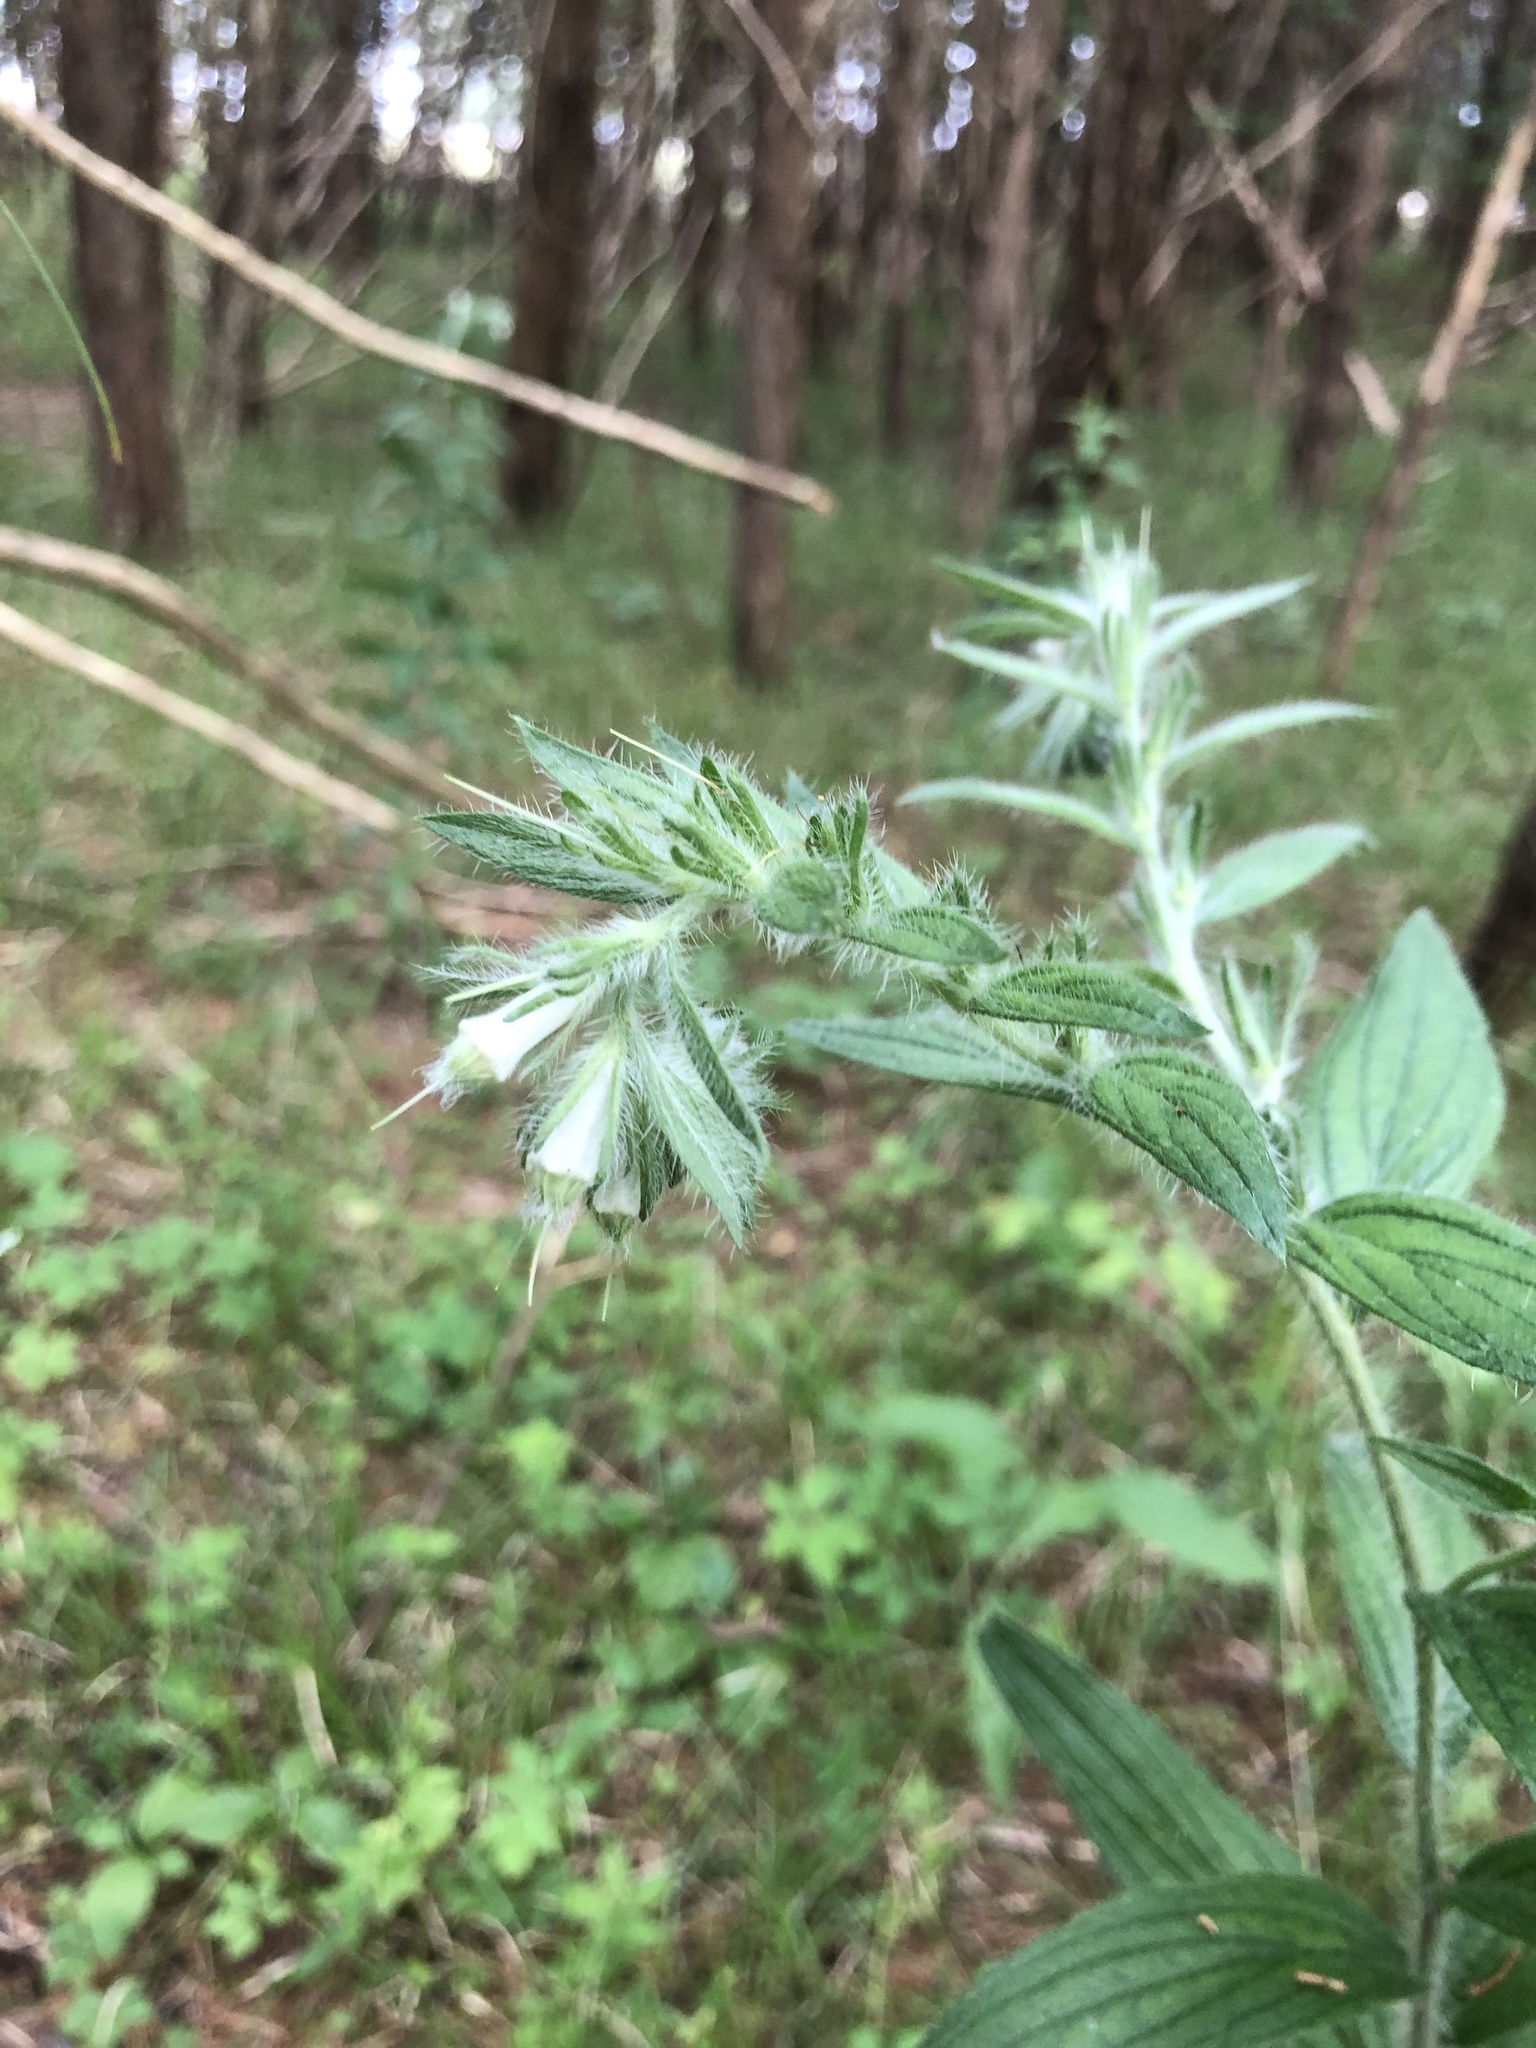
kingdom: Plantae
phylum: Tracheophyta
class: Magnoliopsida
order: Boraginales
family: Boraginaceae
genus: Lithospermum
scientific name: Lithospermum caroliniense
